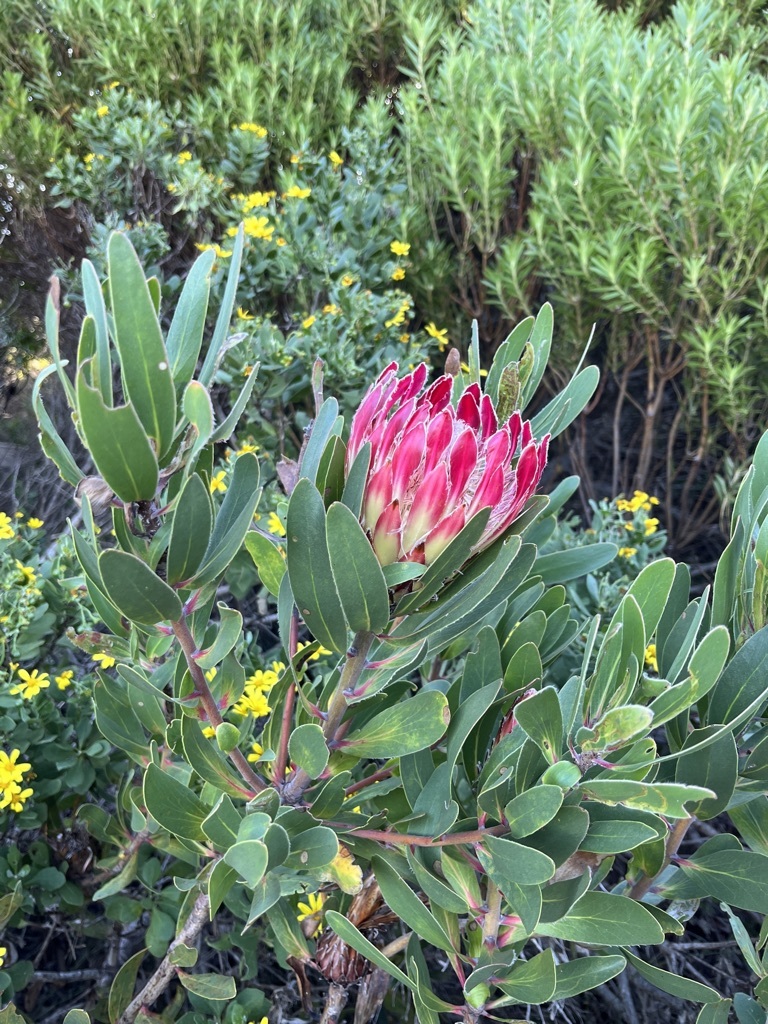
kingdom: Plantae
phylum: Tracheophyta
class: Magnoliopsida
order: Proteales
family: Proteaceae
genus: Protea
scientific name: Protea obtusifolia
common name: Bredasdorp sugarbush
